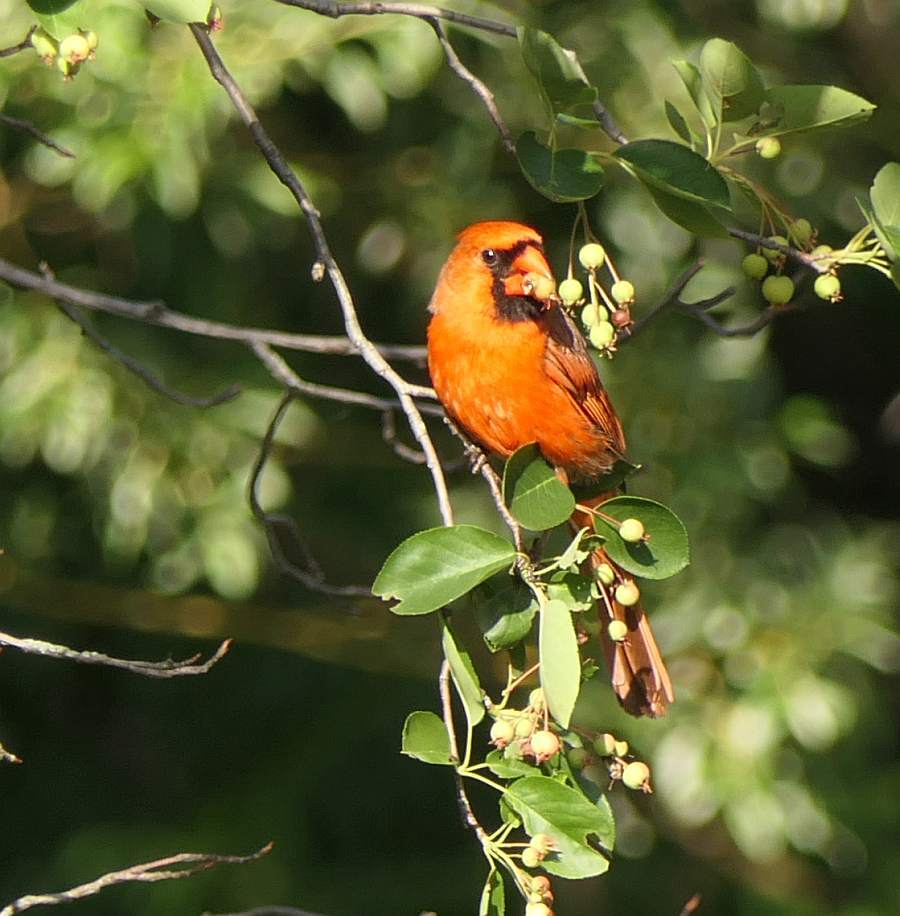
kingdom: Animalia
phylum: Chordata
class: Aves
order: Passeriformes
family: Cardinalidae
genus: Cardinalis
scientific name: Cardinalis cardinalis
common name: Northern cardinal
